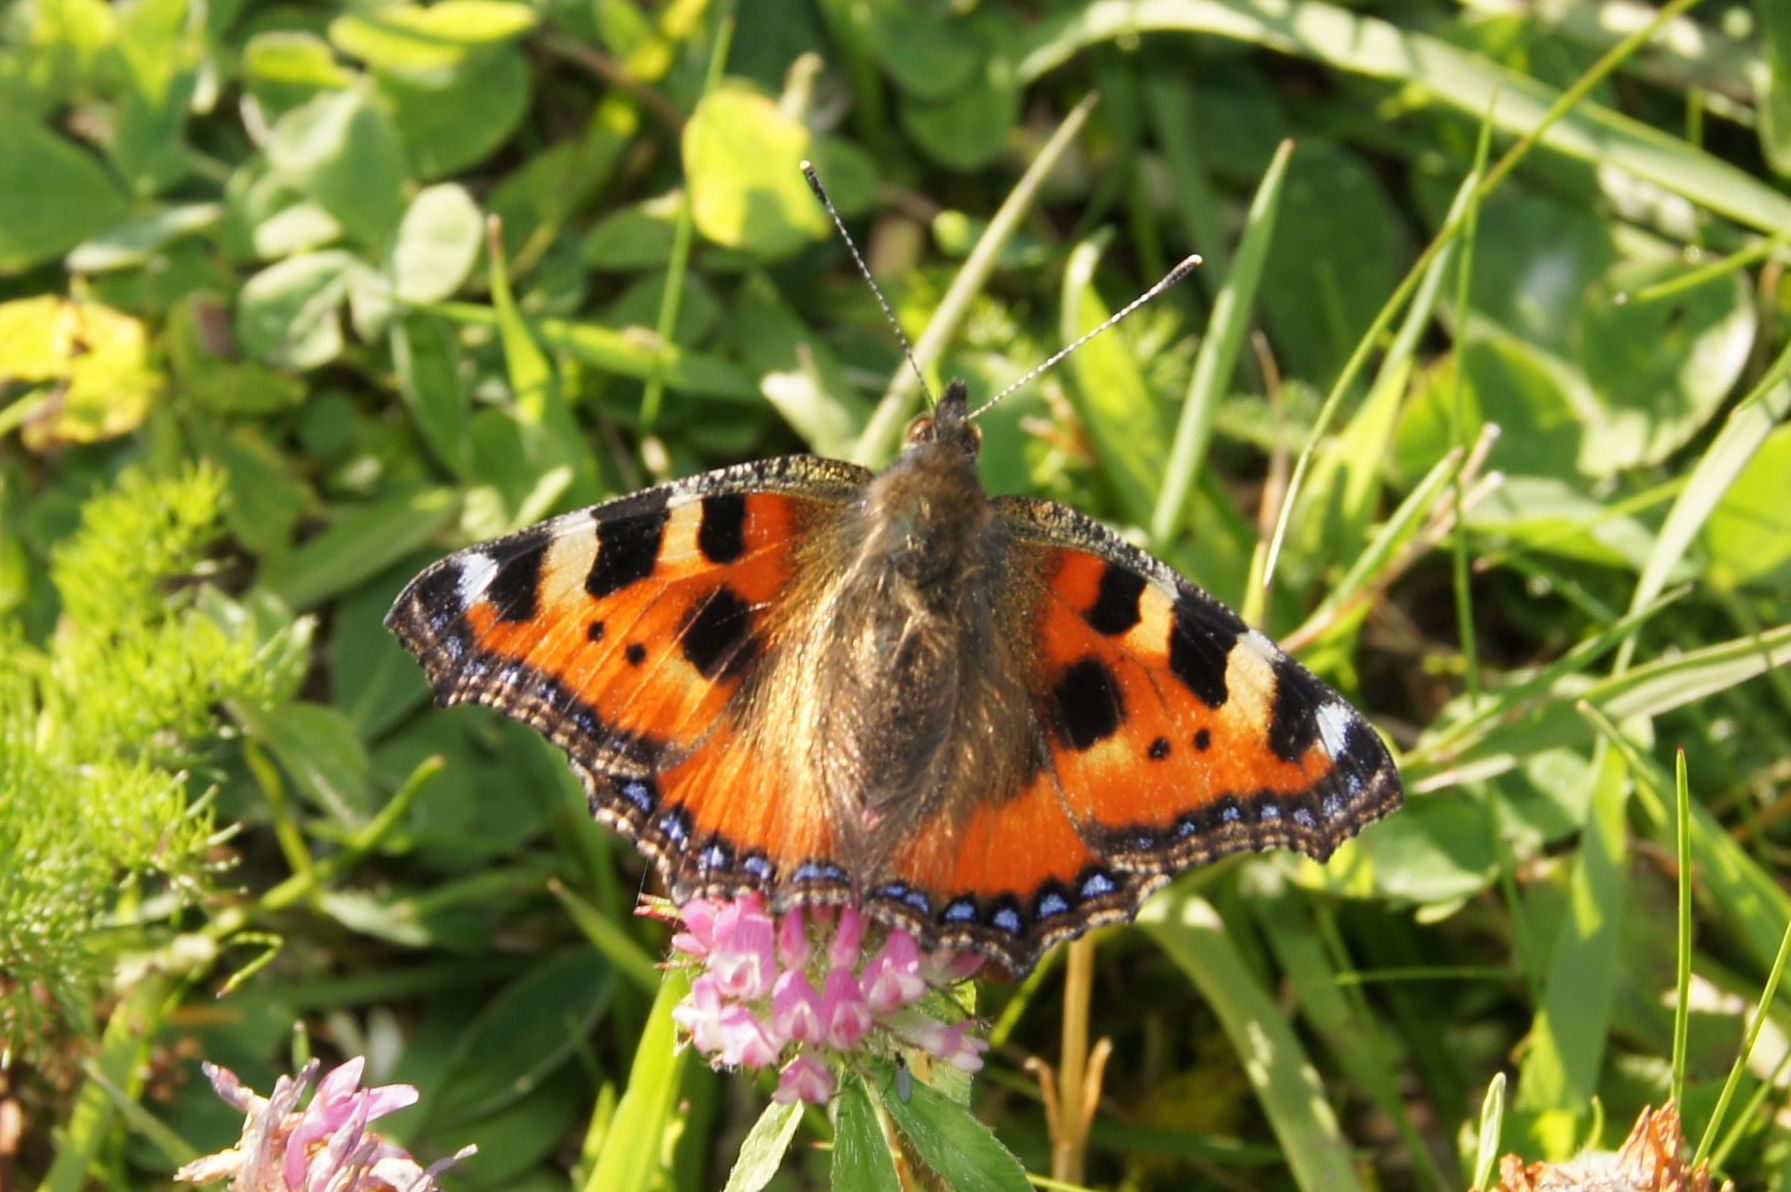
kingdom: Animalia
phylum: Arthropoda
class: Insecta
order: Lepidoptera
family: Nymphalidae
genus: Aglais
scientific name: Aglais urticae
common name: Small tortoiseshell
